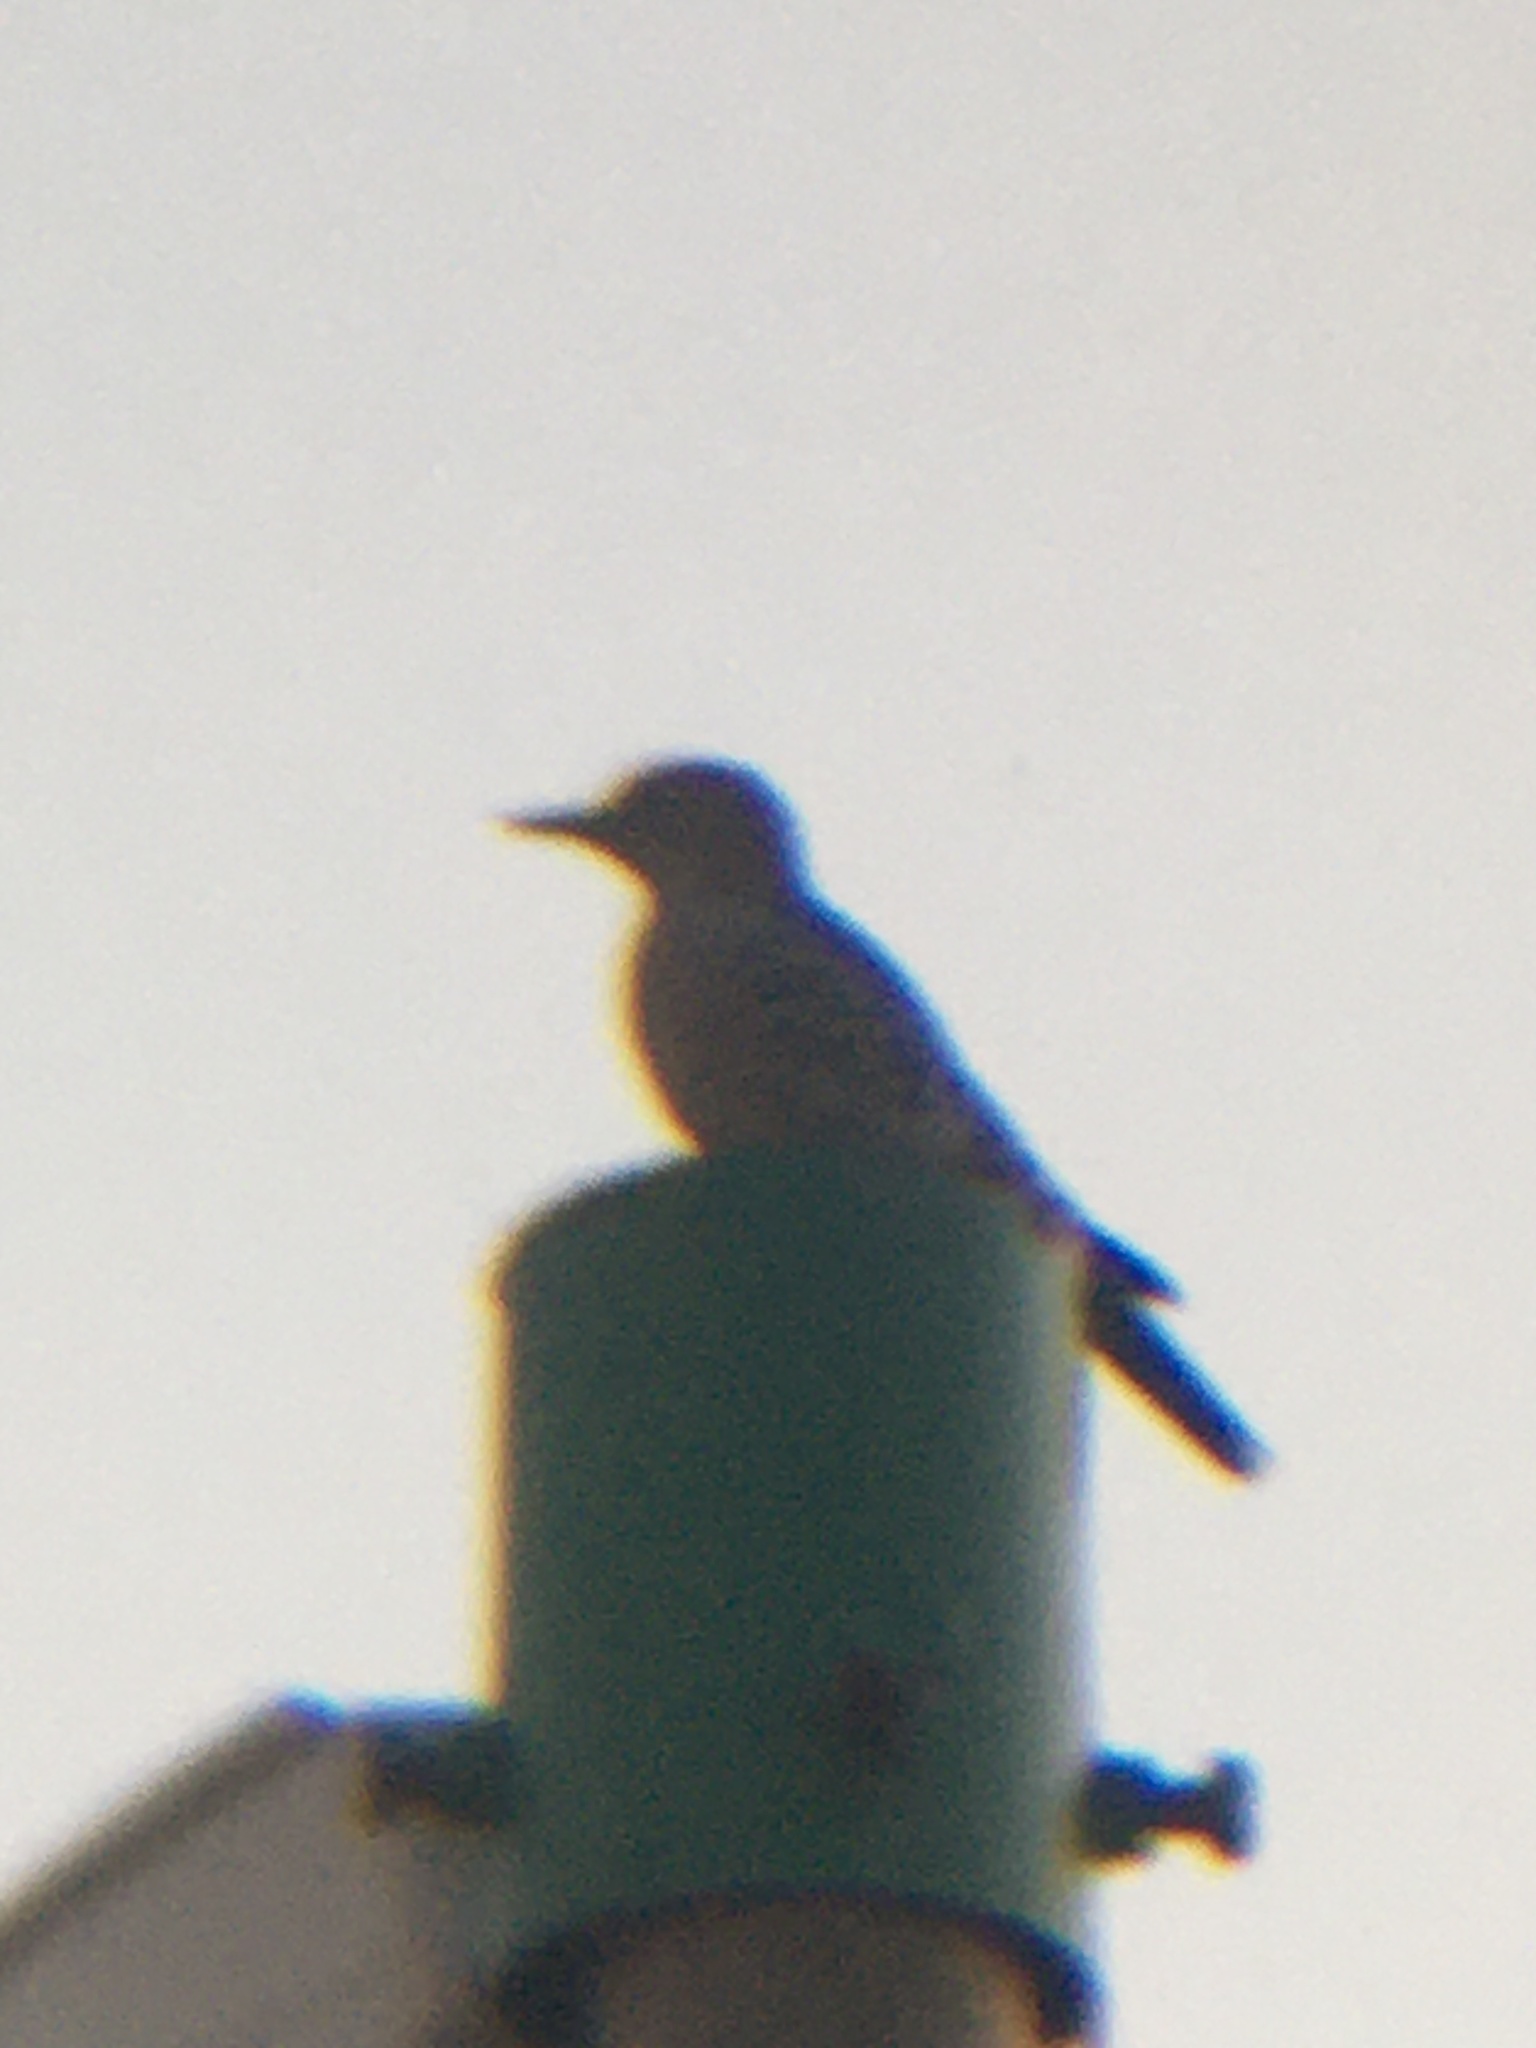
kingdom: Animalia
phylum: Chordata
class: Aves
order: Piciformes
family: Picidae
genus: Melanerpes
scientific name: Melanerpes uropygialis
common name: Gila woodpecker
